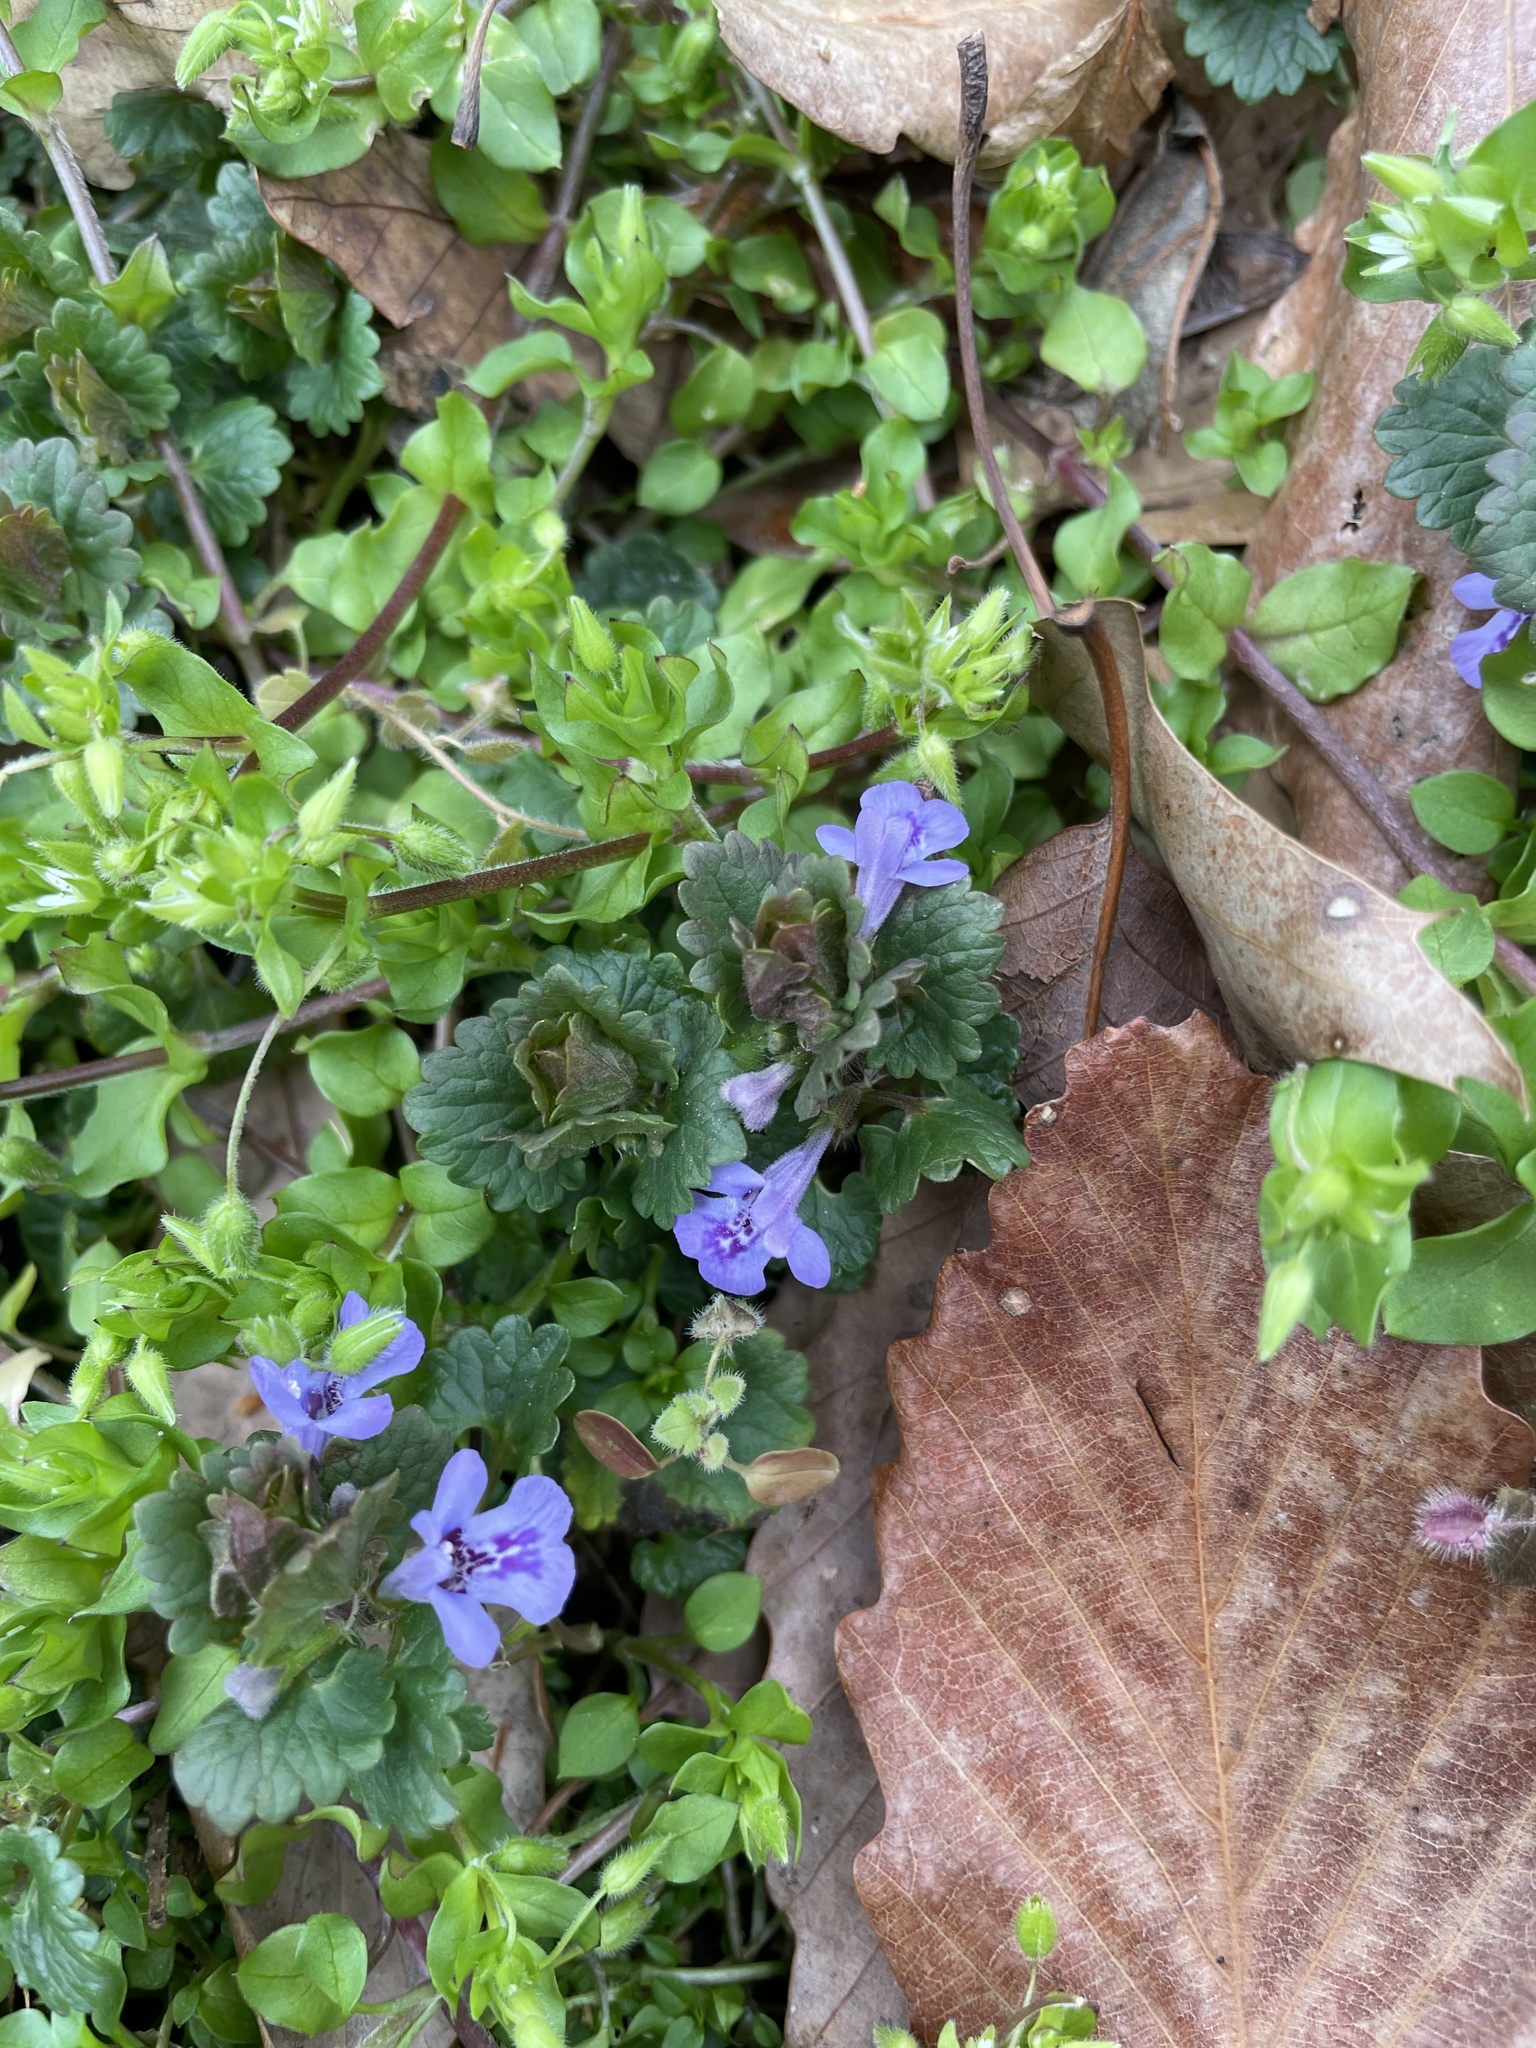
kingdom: Plantae
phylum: Tracheophyta
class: Magnoliopsida
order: Lamiales
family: Lamiaceae
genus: Glechoma
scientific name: Glechoma hederacea
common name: Ground ivy
